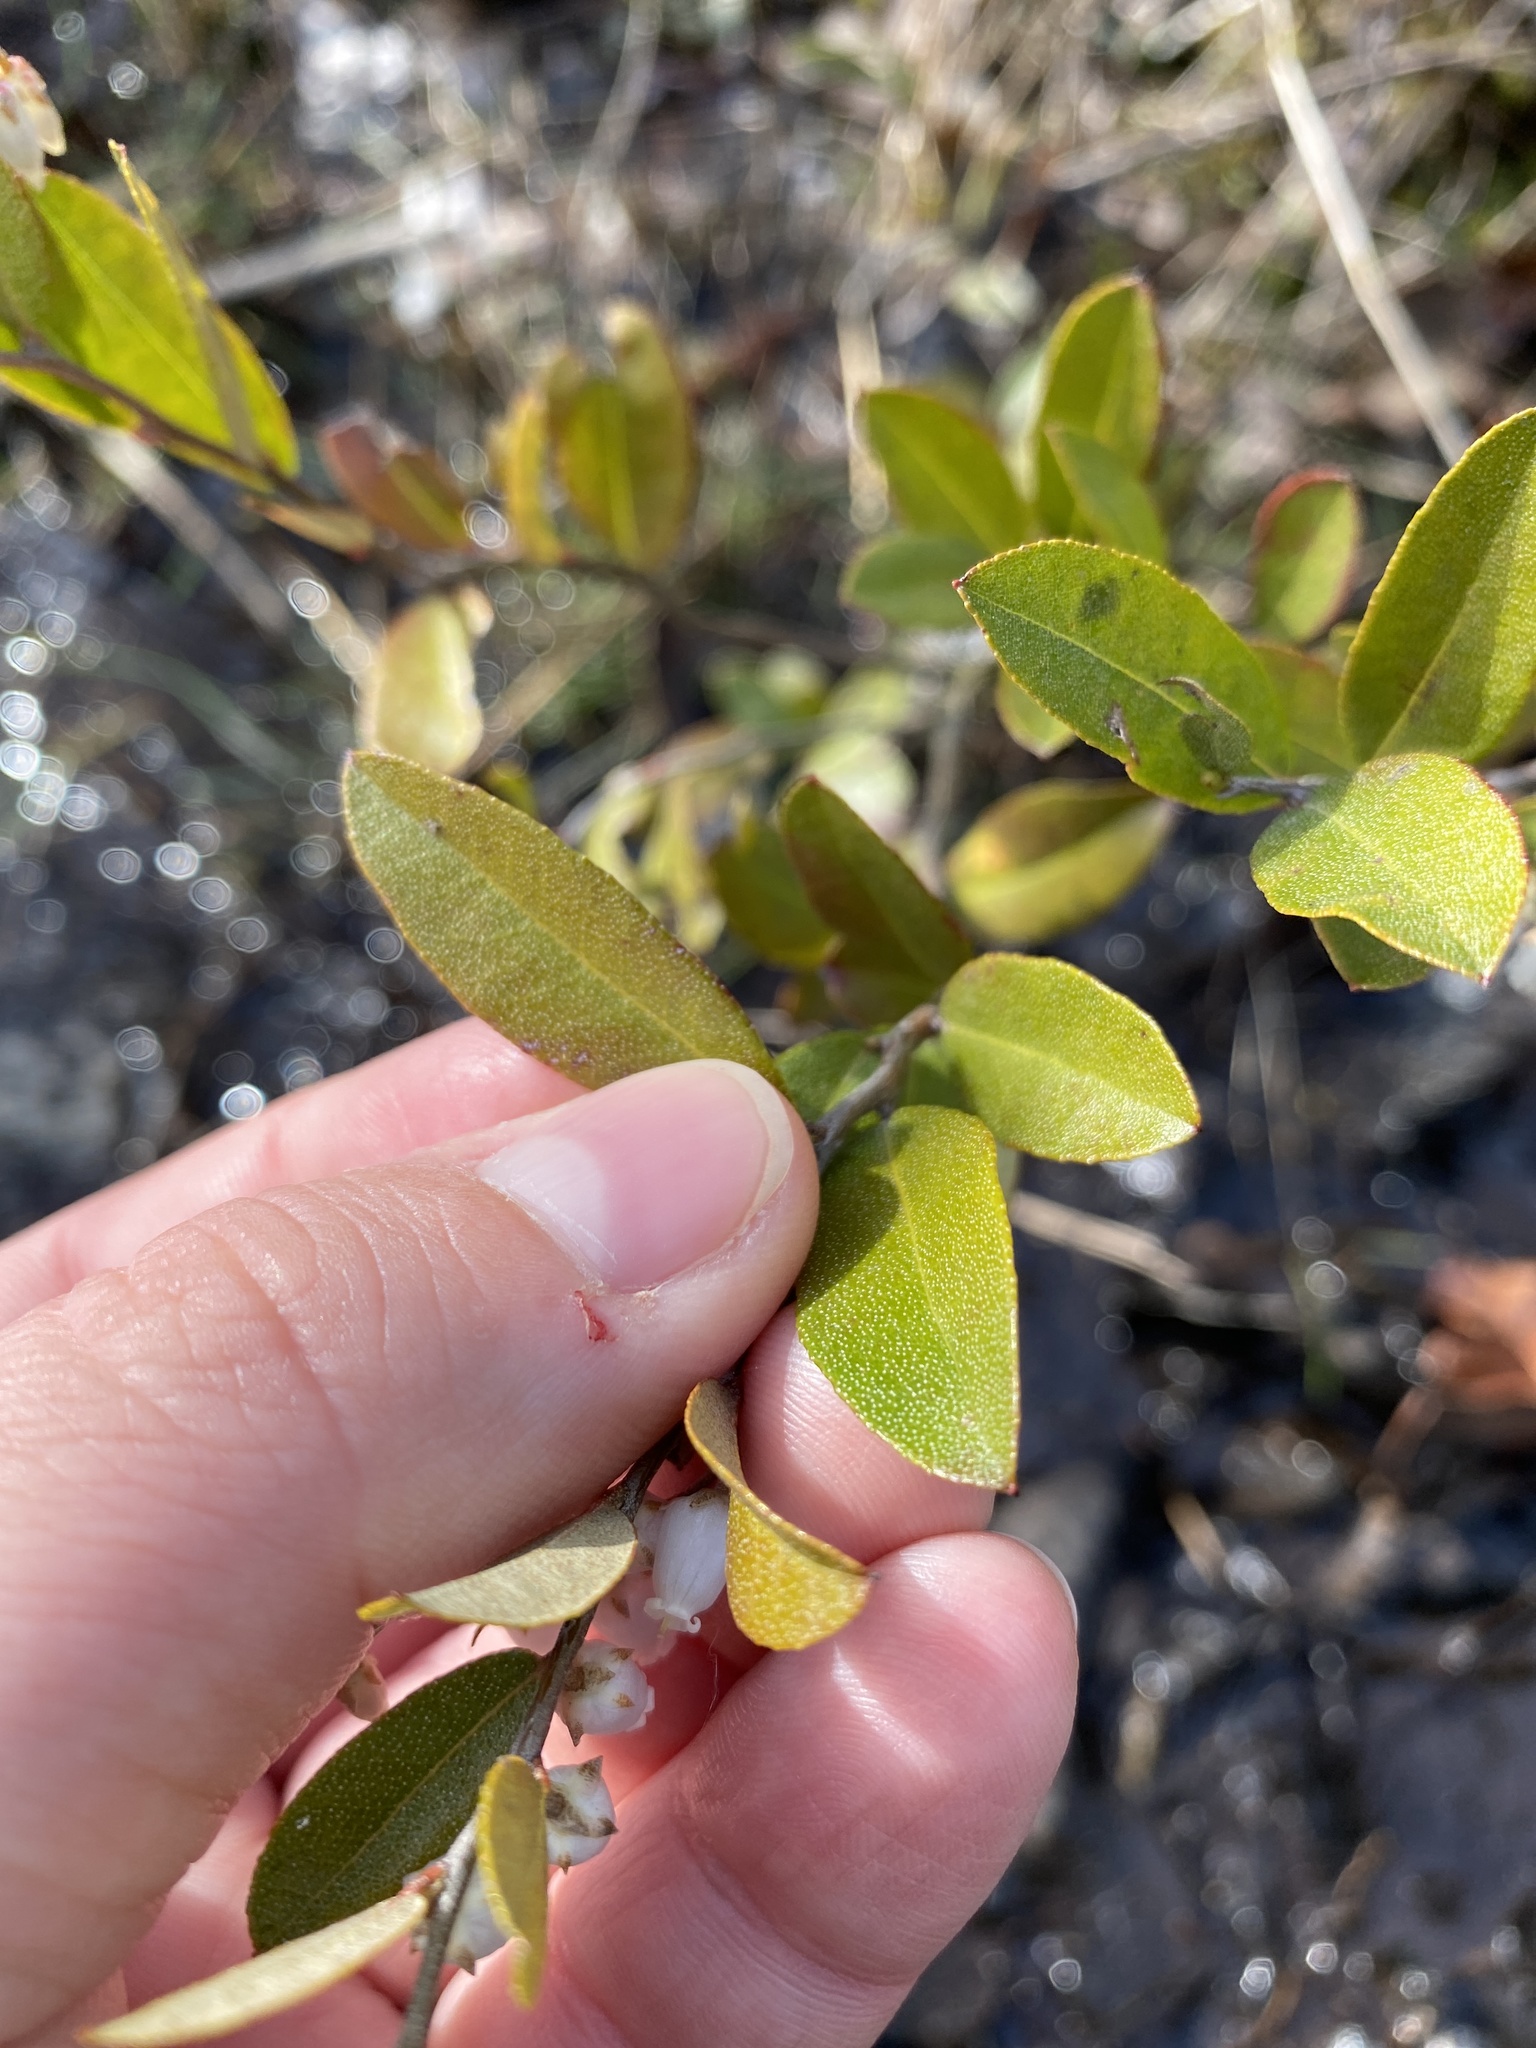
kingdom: Plantae
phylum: Tracheophyta
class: Magnoliopsida
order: Ericales
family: Ericaceae
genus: Chamaedaphne
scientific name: Chamaedaphne calyculata
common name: Leatherleaf
